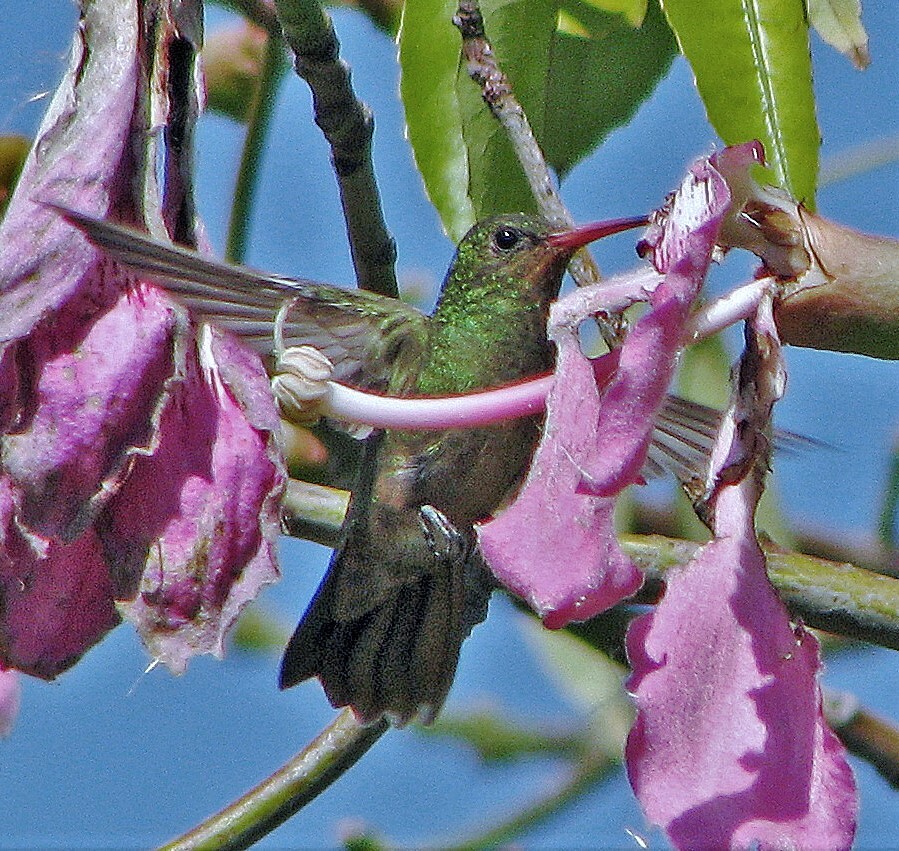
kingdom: Animalia
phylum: Chordata
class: Aves
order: Apodiformes
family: Trochilidae
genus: Hylocharis
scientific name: Hylocharis chrysura
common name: Gilded sapphire
